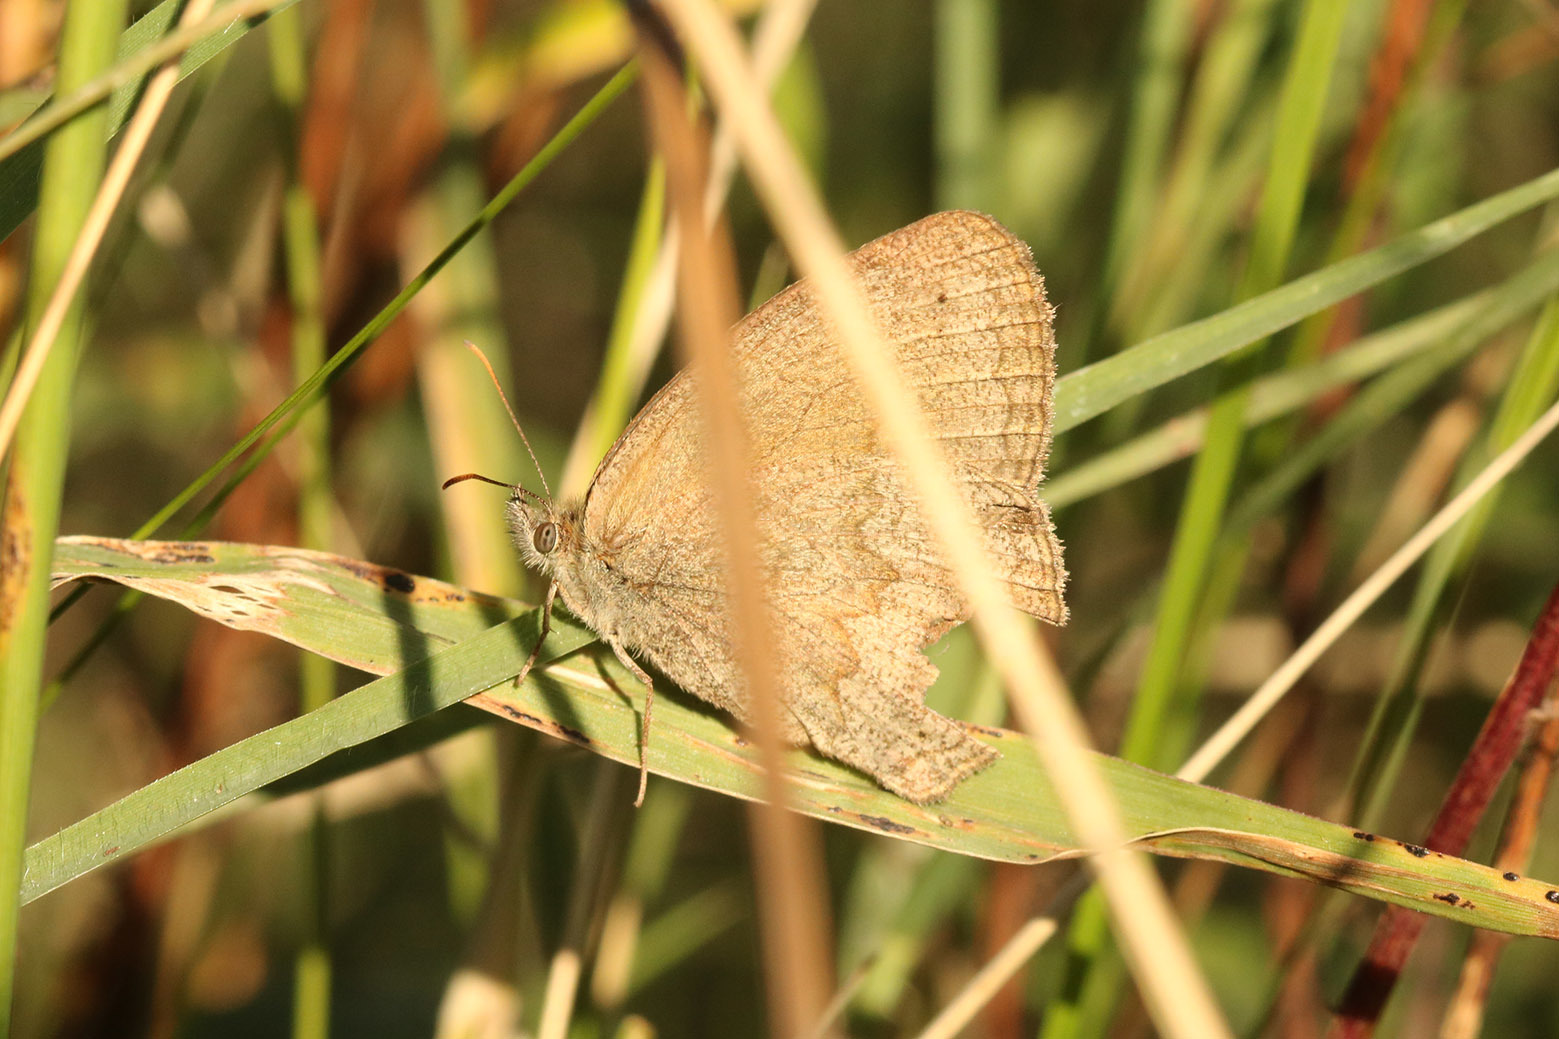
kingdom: Animalia
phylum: Arthropoda
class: Insecta
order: Lepidoptera
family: Nymphalidae
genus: Yphthimoides
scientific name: Yphthimoides celmis
